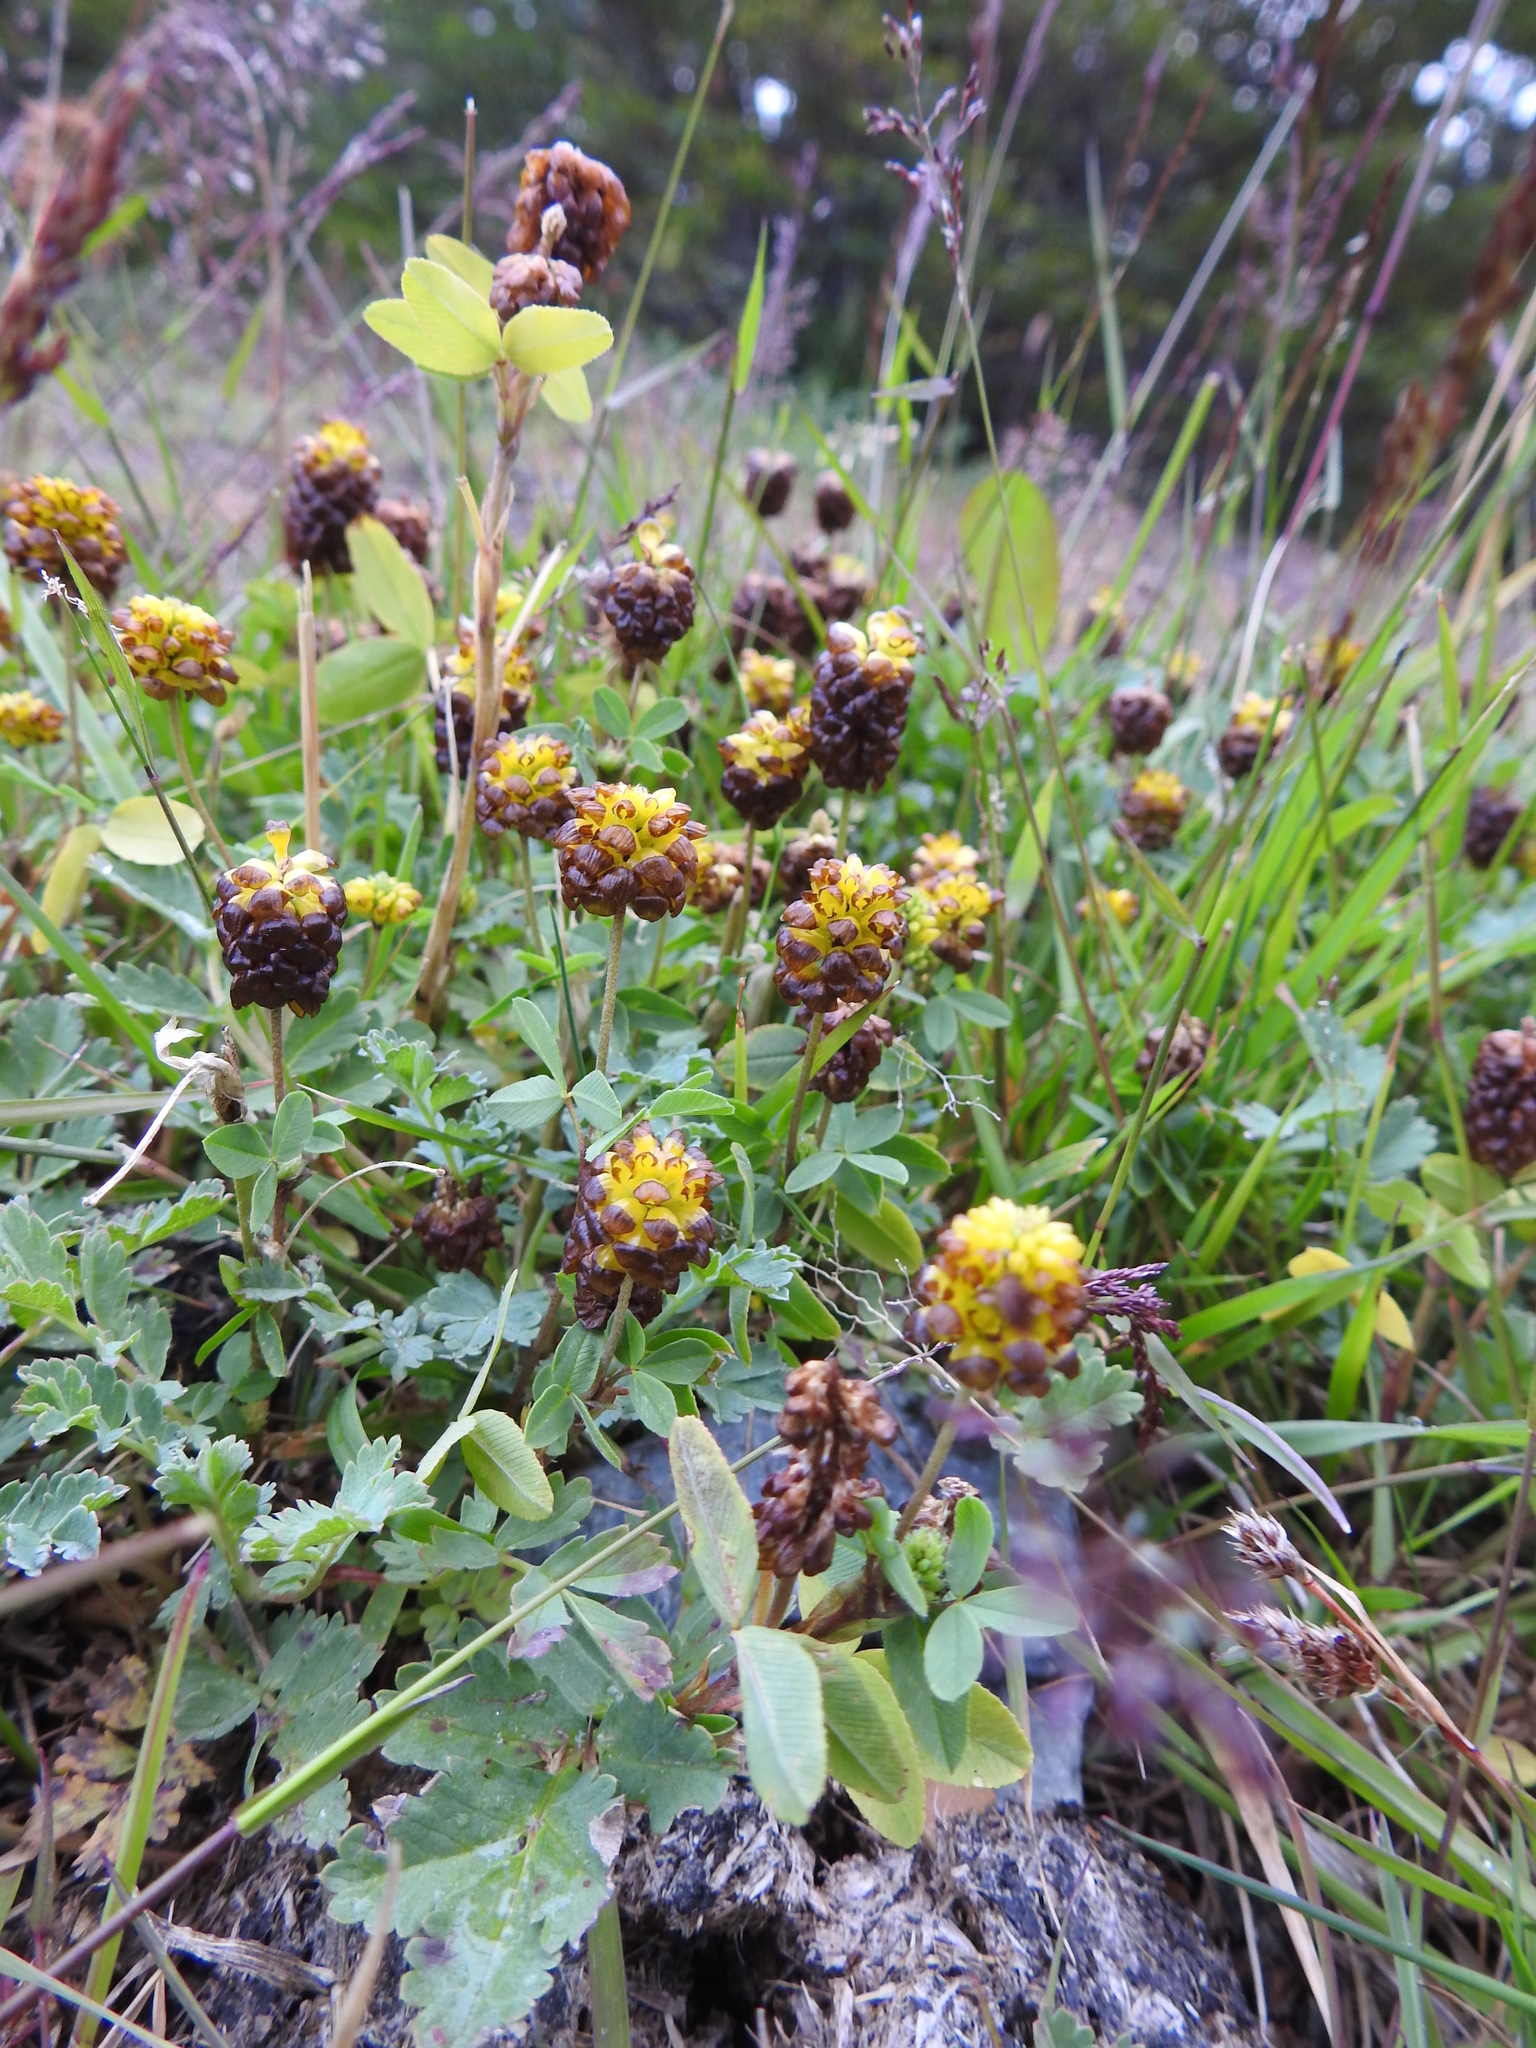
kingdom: Plantae
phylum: Tracheophyta
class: Magnoliopsida
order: Fabales
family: Fabaceae
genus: Trifolium
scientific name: Trifolium spadiceum
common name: Brown moor clover
